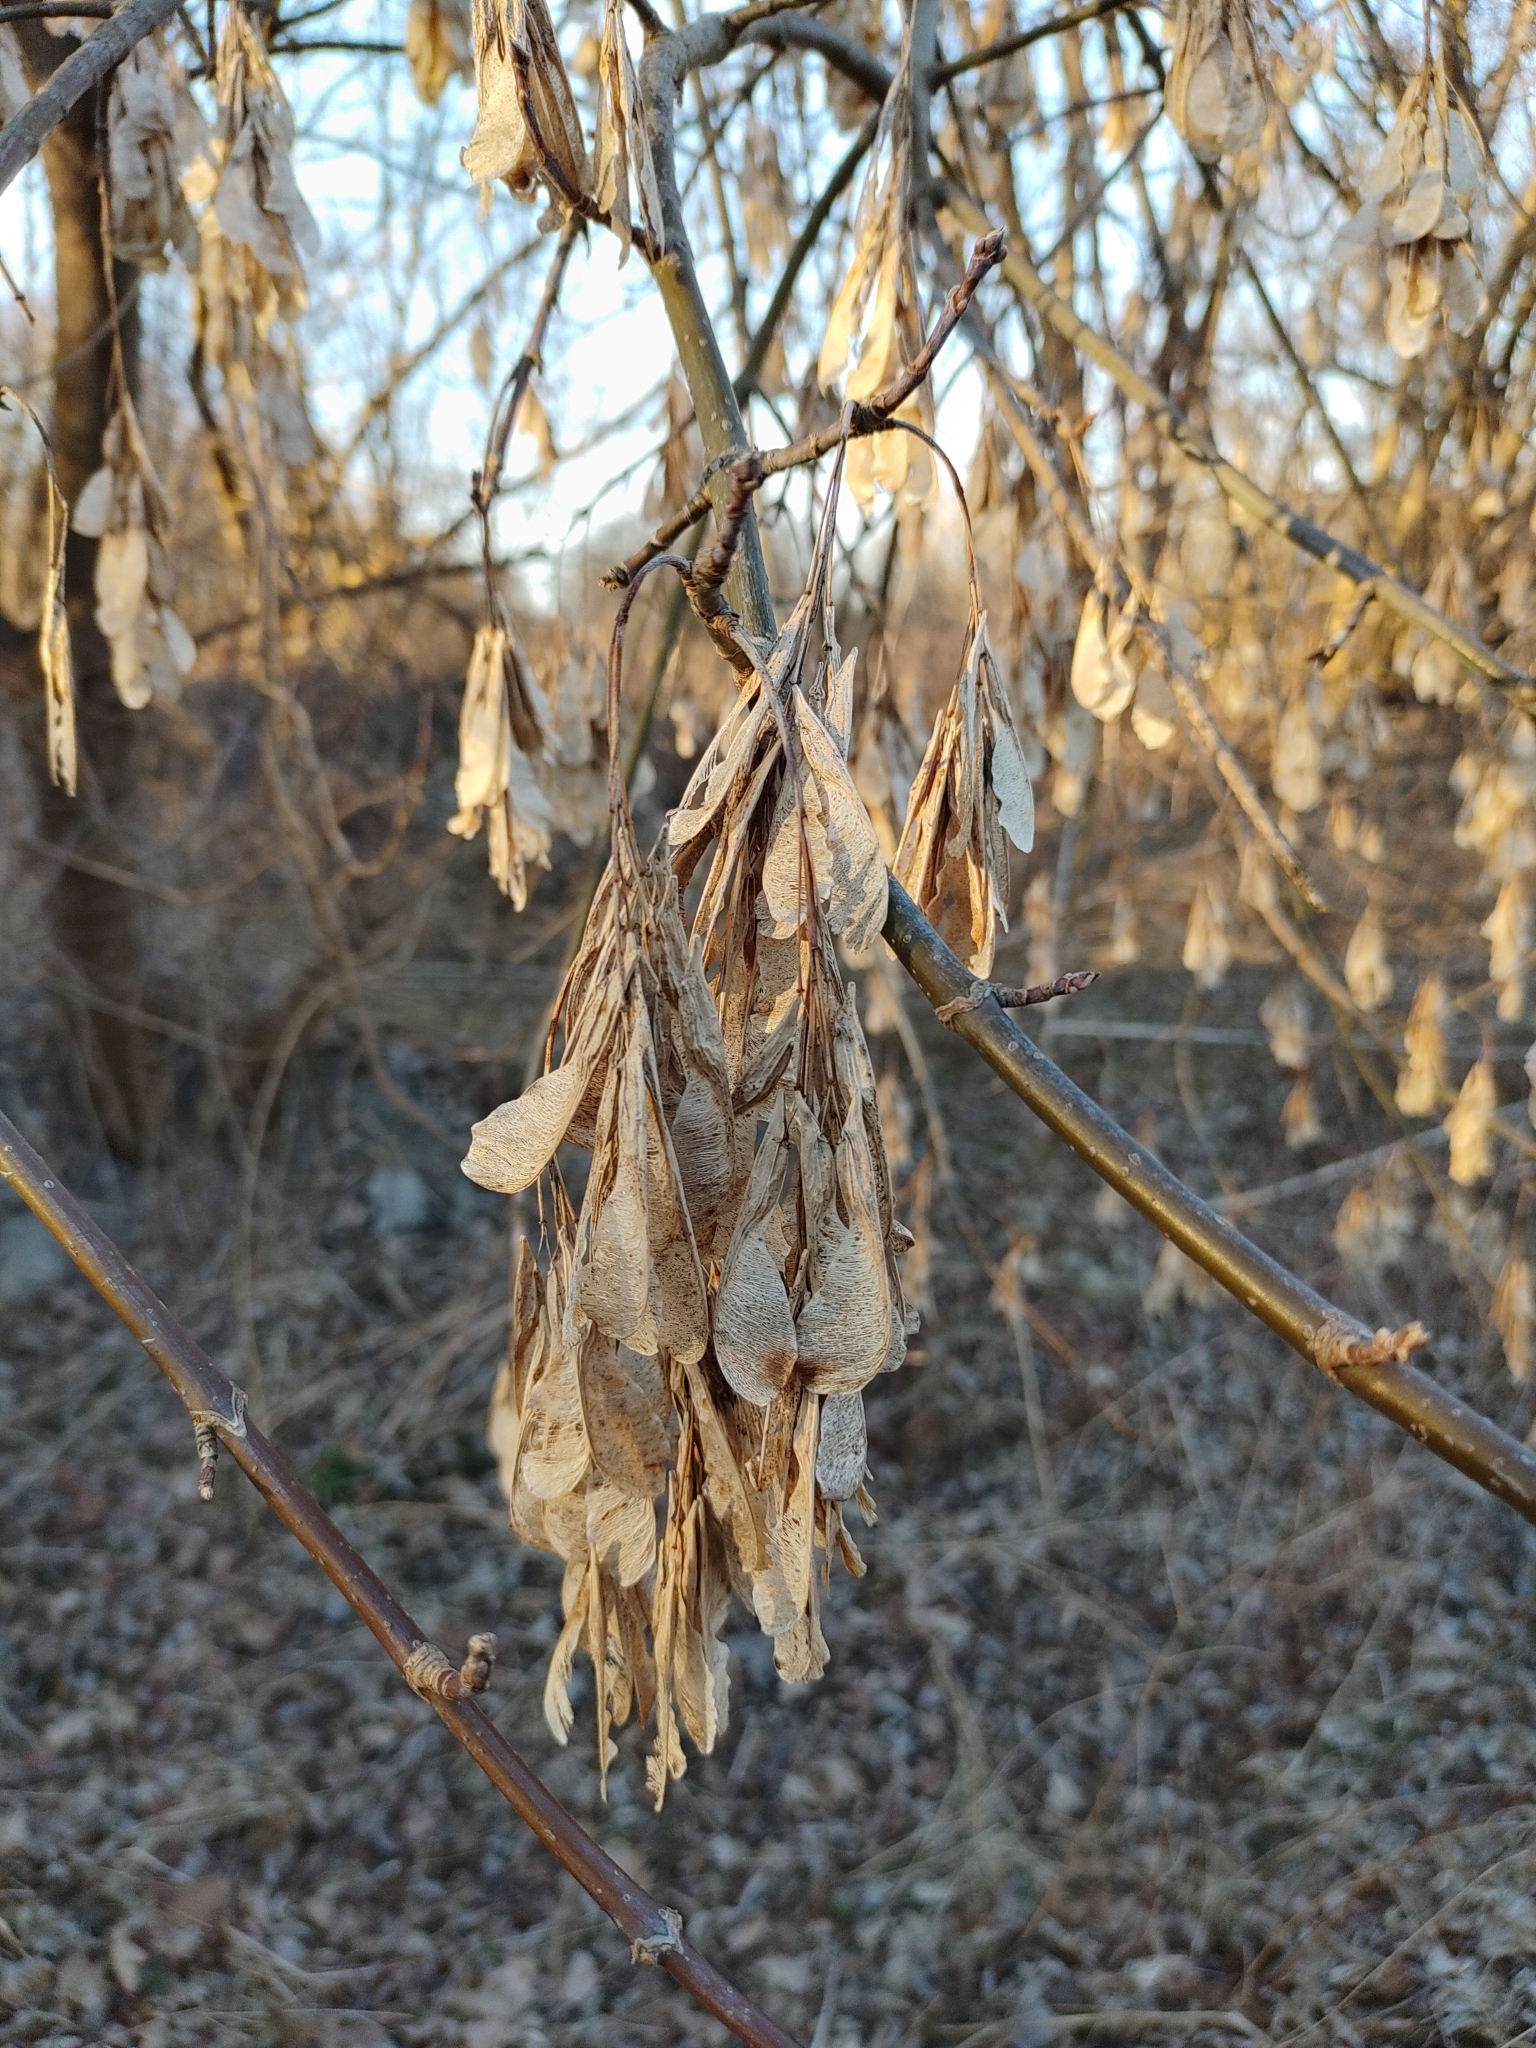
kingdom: Plantae
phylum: Tracheophyta
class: Magnoliopsida
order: Sapindales
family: Sapindaceae
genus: Acer
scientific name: Acer negundo
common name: Ashleaf maple
